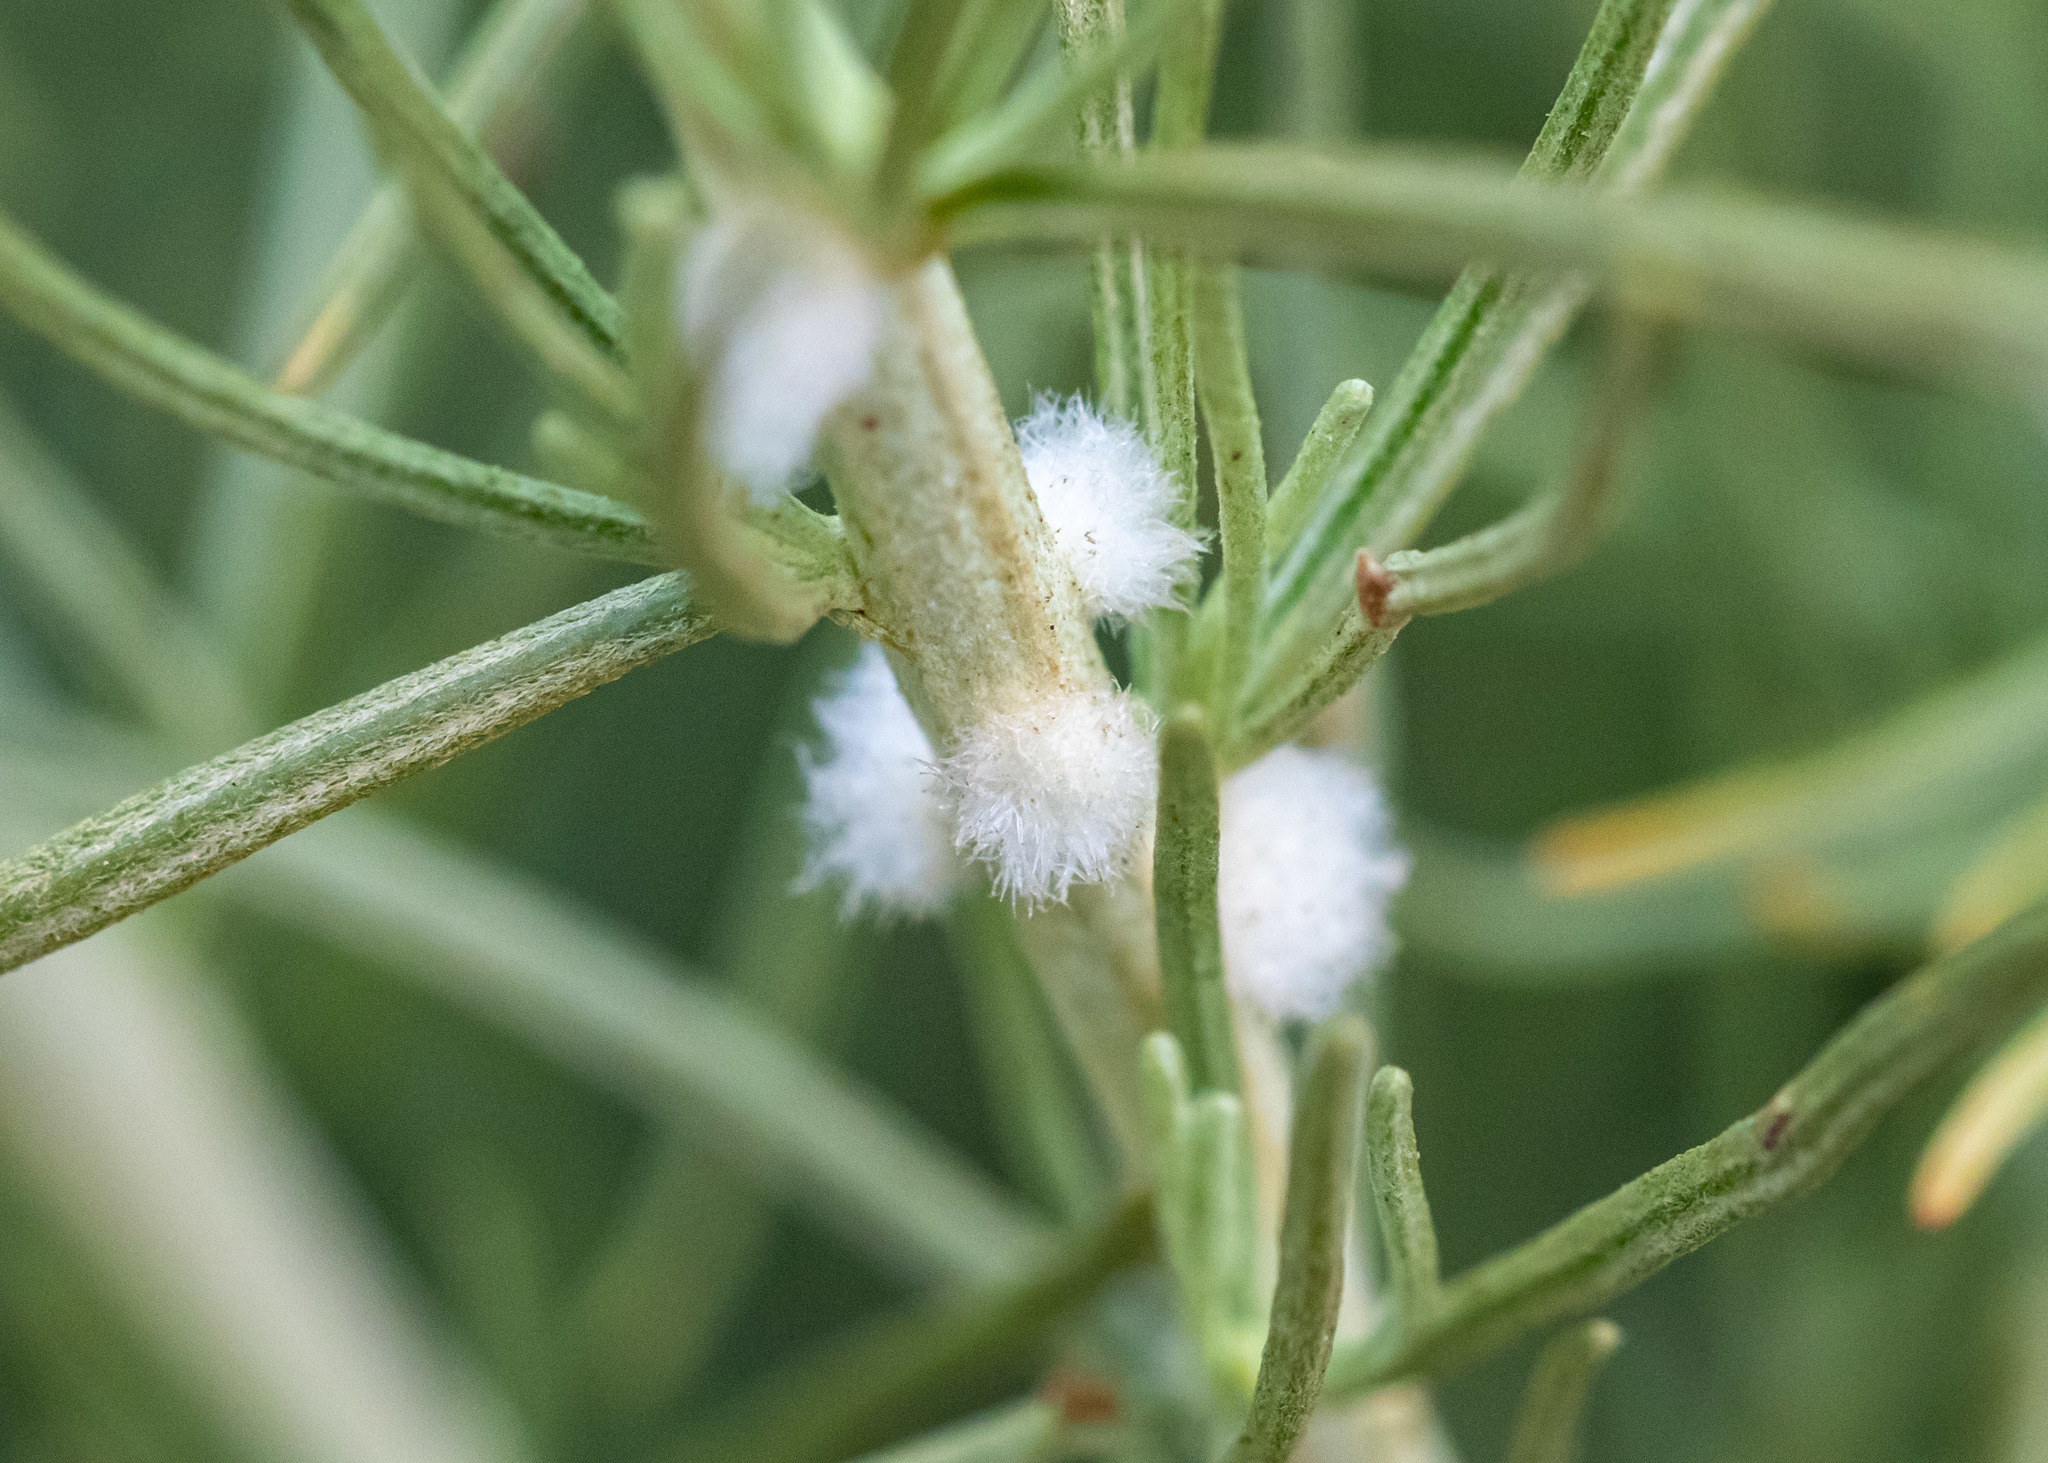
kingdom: Animalia
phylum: Arthropoda
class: Insecta
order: Diptera
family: Cecidomyiidae
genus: Rhopalomyia
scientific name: Rhopalomyia floccosa
